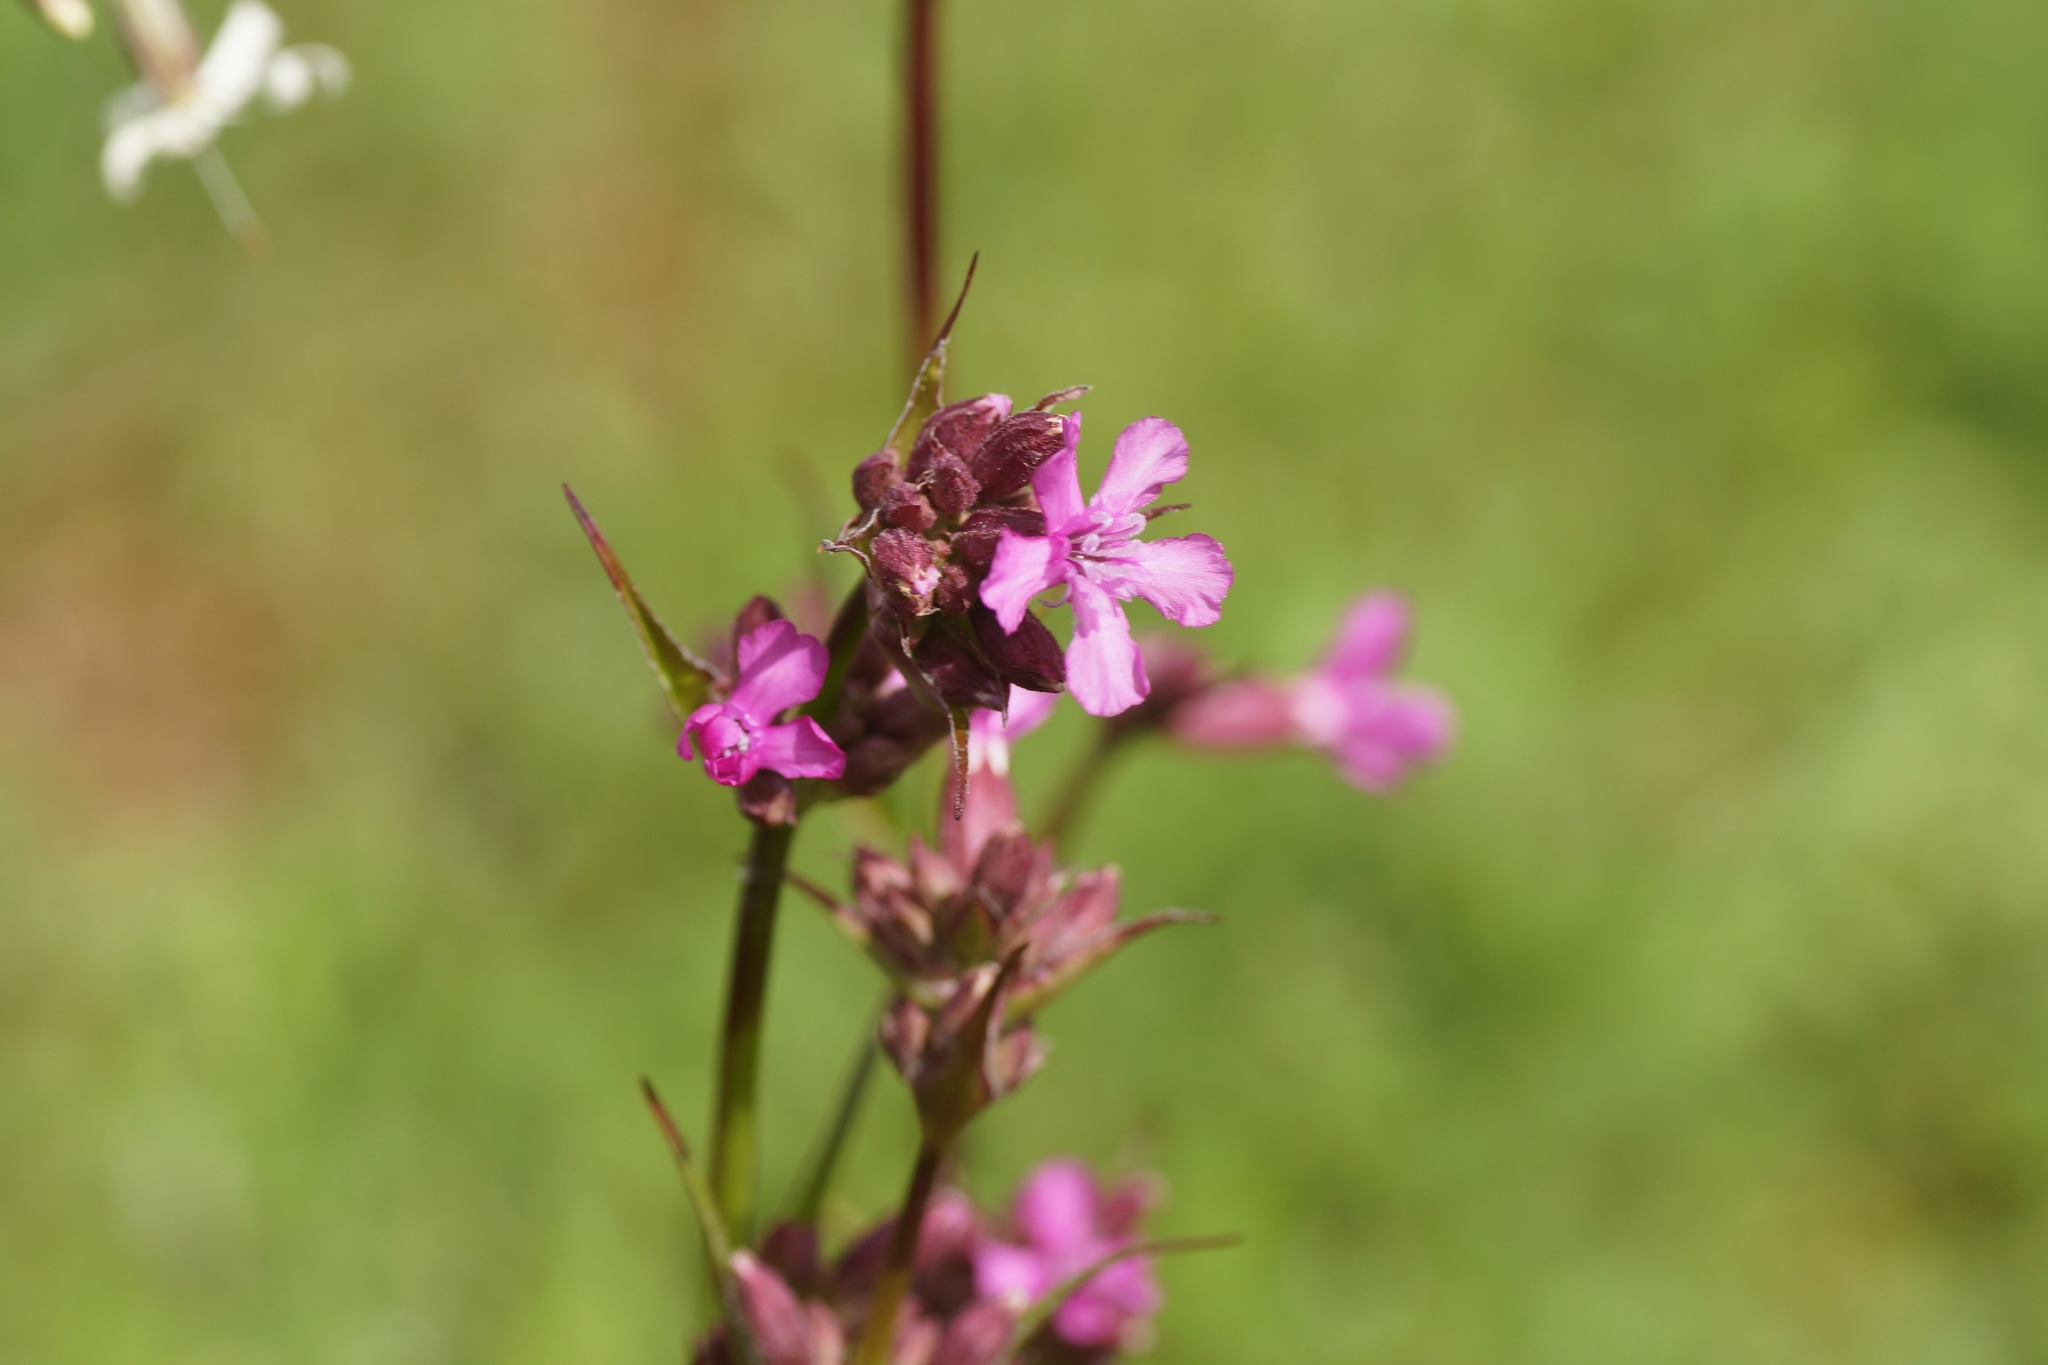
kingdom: Plantae
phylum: Tracheophyta
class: Magnoliopsida
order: Caryophyllales
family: Caryophyllaceae
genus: Viscaria
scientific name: Viscaria vulgaris
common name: Clammy campion
